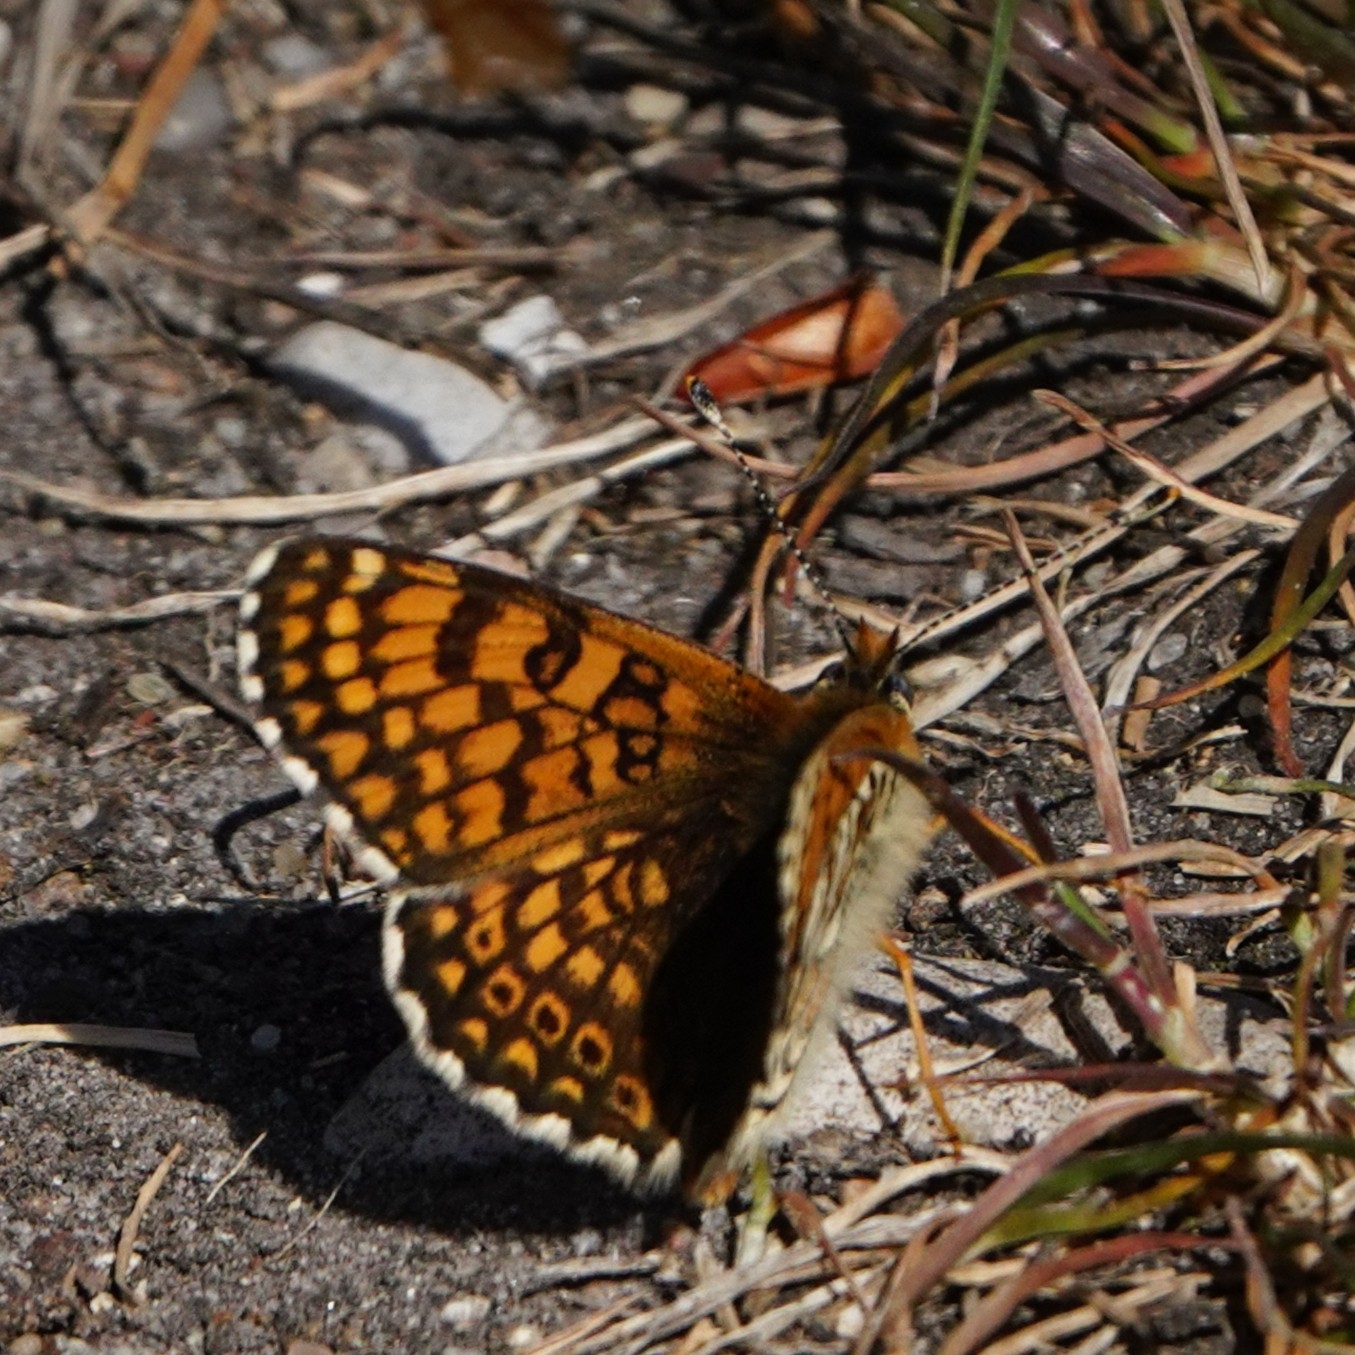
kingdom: Animalia
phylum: Arthropoda
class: Insecta
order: Lepidoptera
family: Nymphalidae
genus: Melitaea
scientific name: Melitaea cinxia
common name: Glanville fritillary
